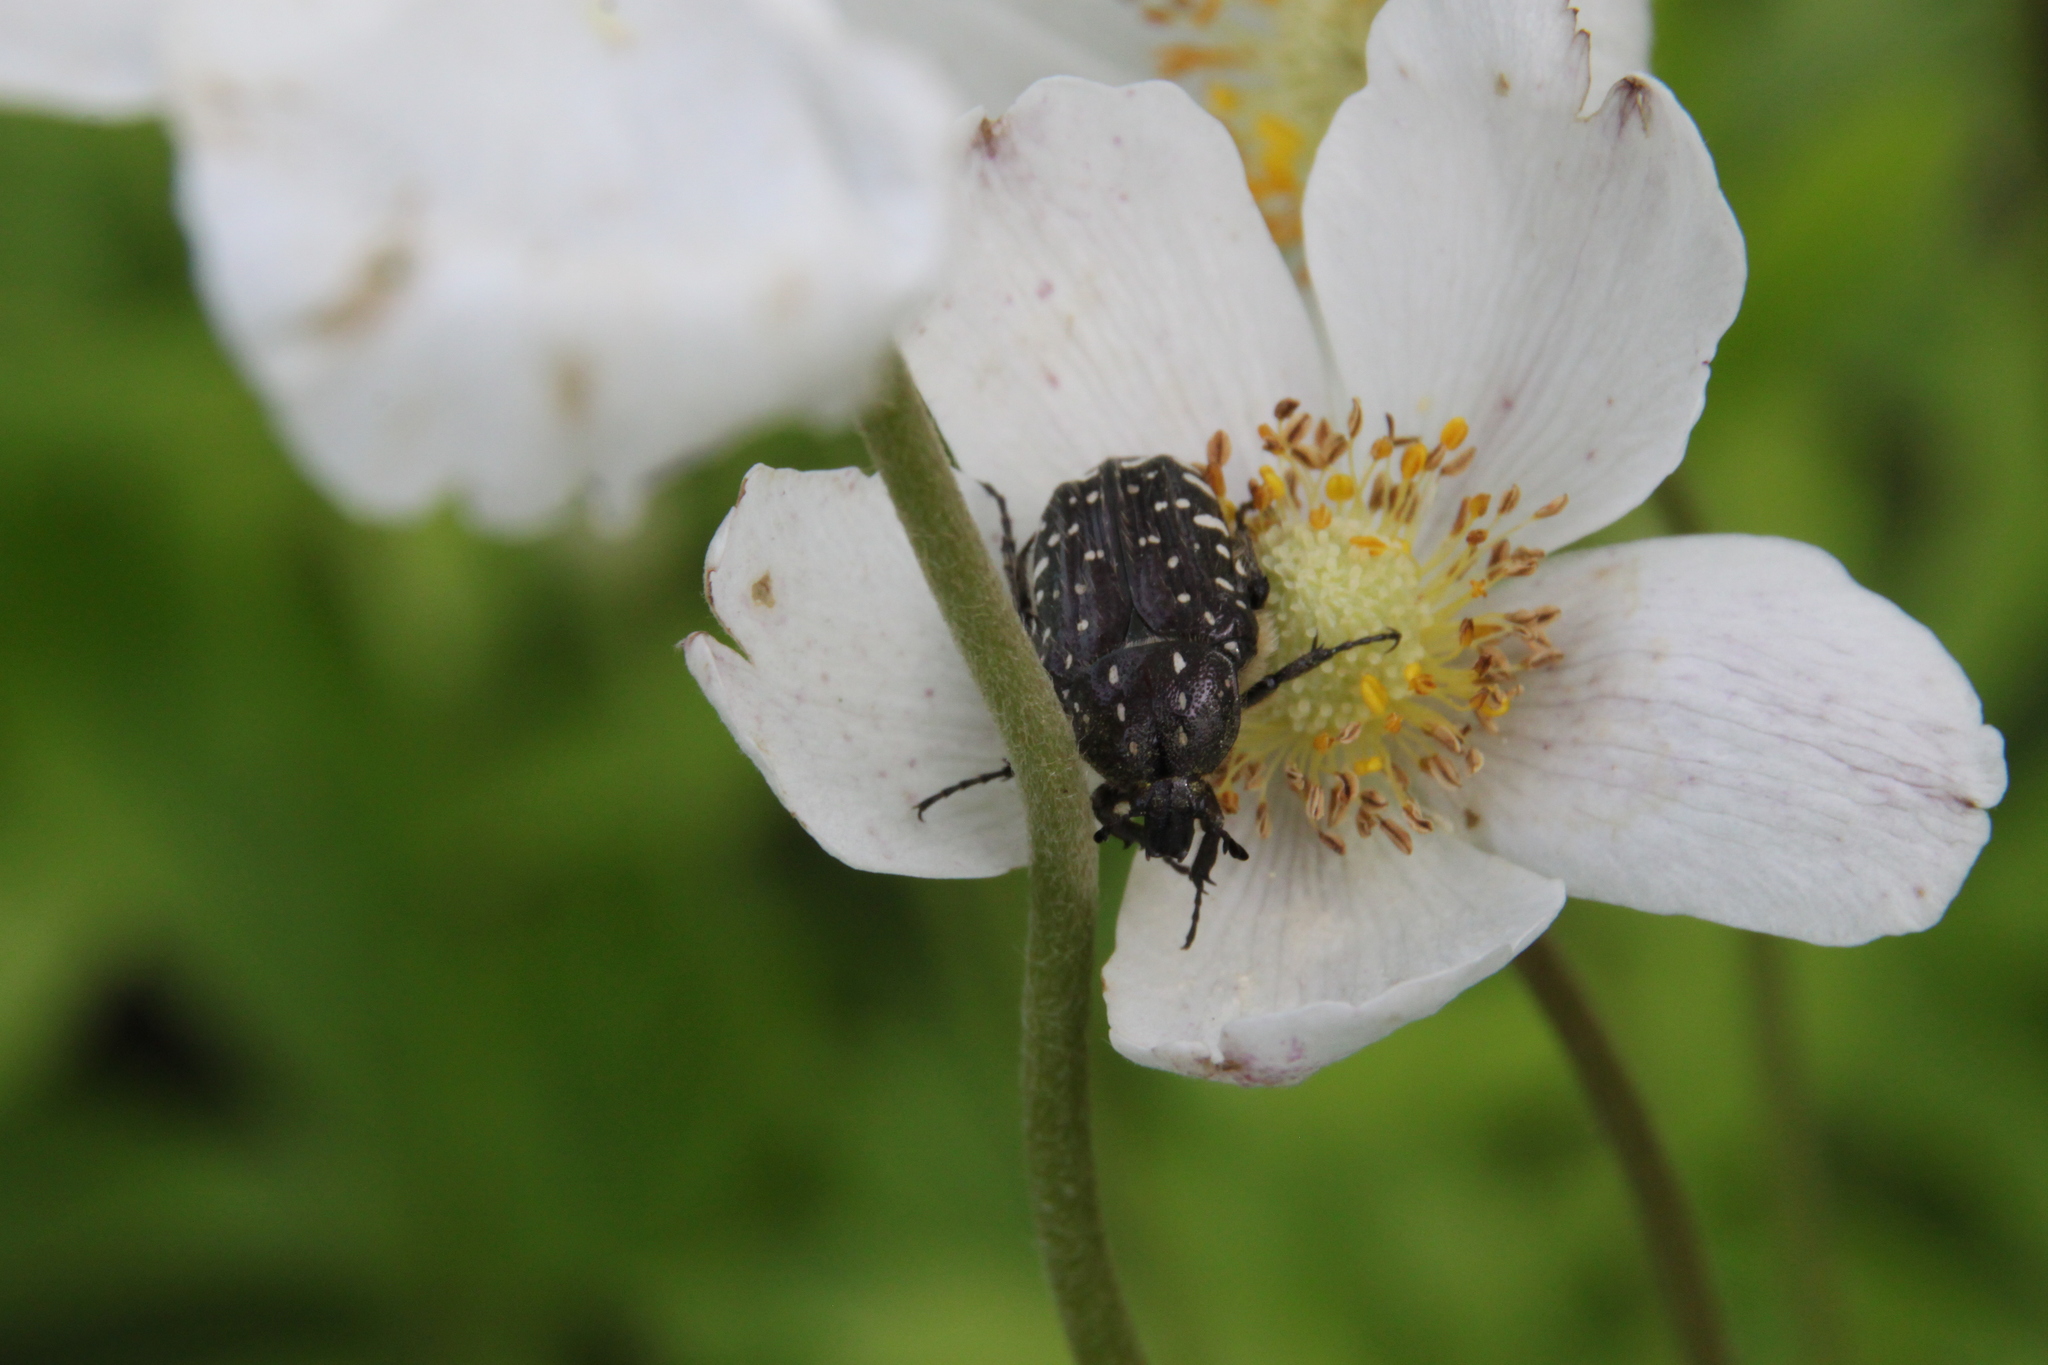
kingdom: Animalia
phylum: Arthropoda
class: Insecta
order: Coleoptera
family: Scarabaeidae
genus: Oxythyrea
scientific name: Oxythyrea funesta
